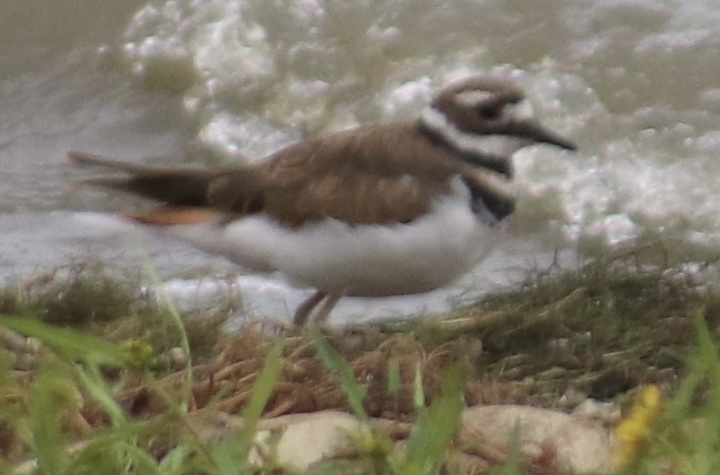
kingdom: Animalia
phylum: Chordata
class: Aves
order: Charadriiformes
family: Charadriidae
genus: Charadrius
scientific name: Charadrius vociferus
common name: Killdeer
